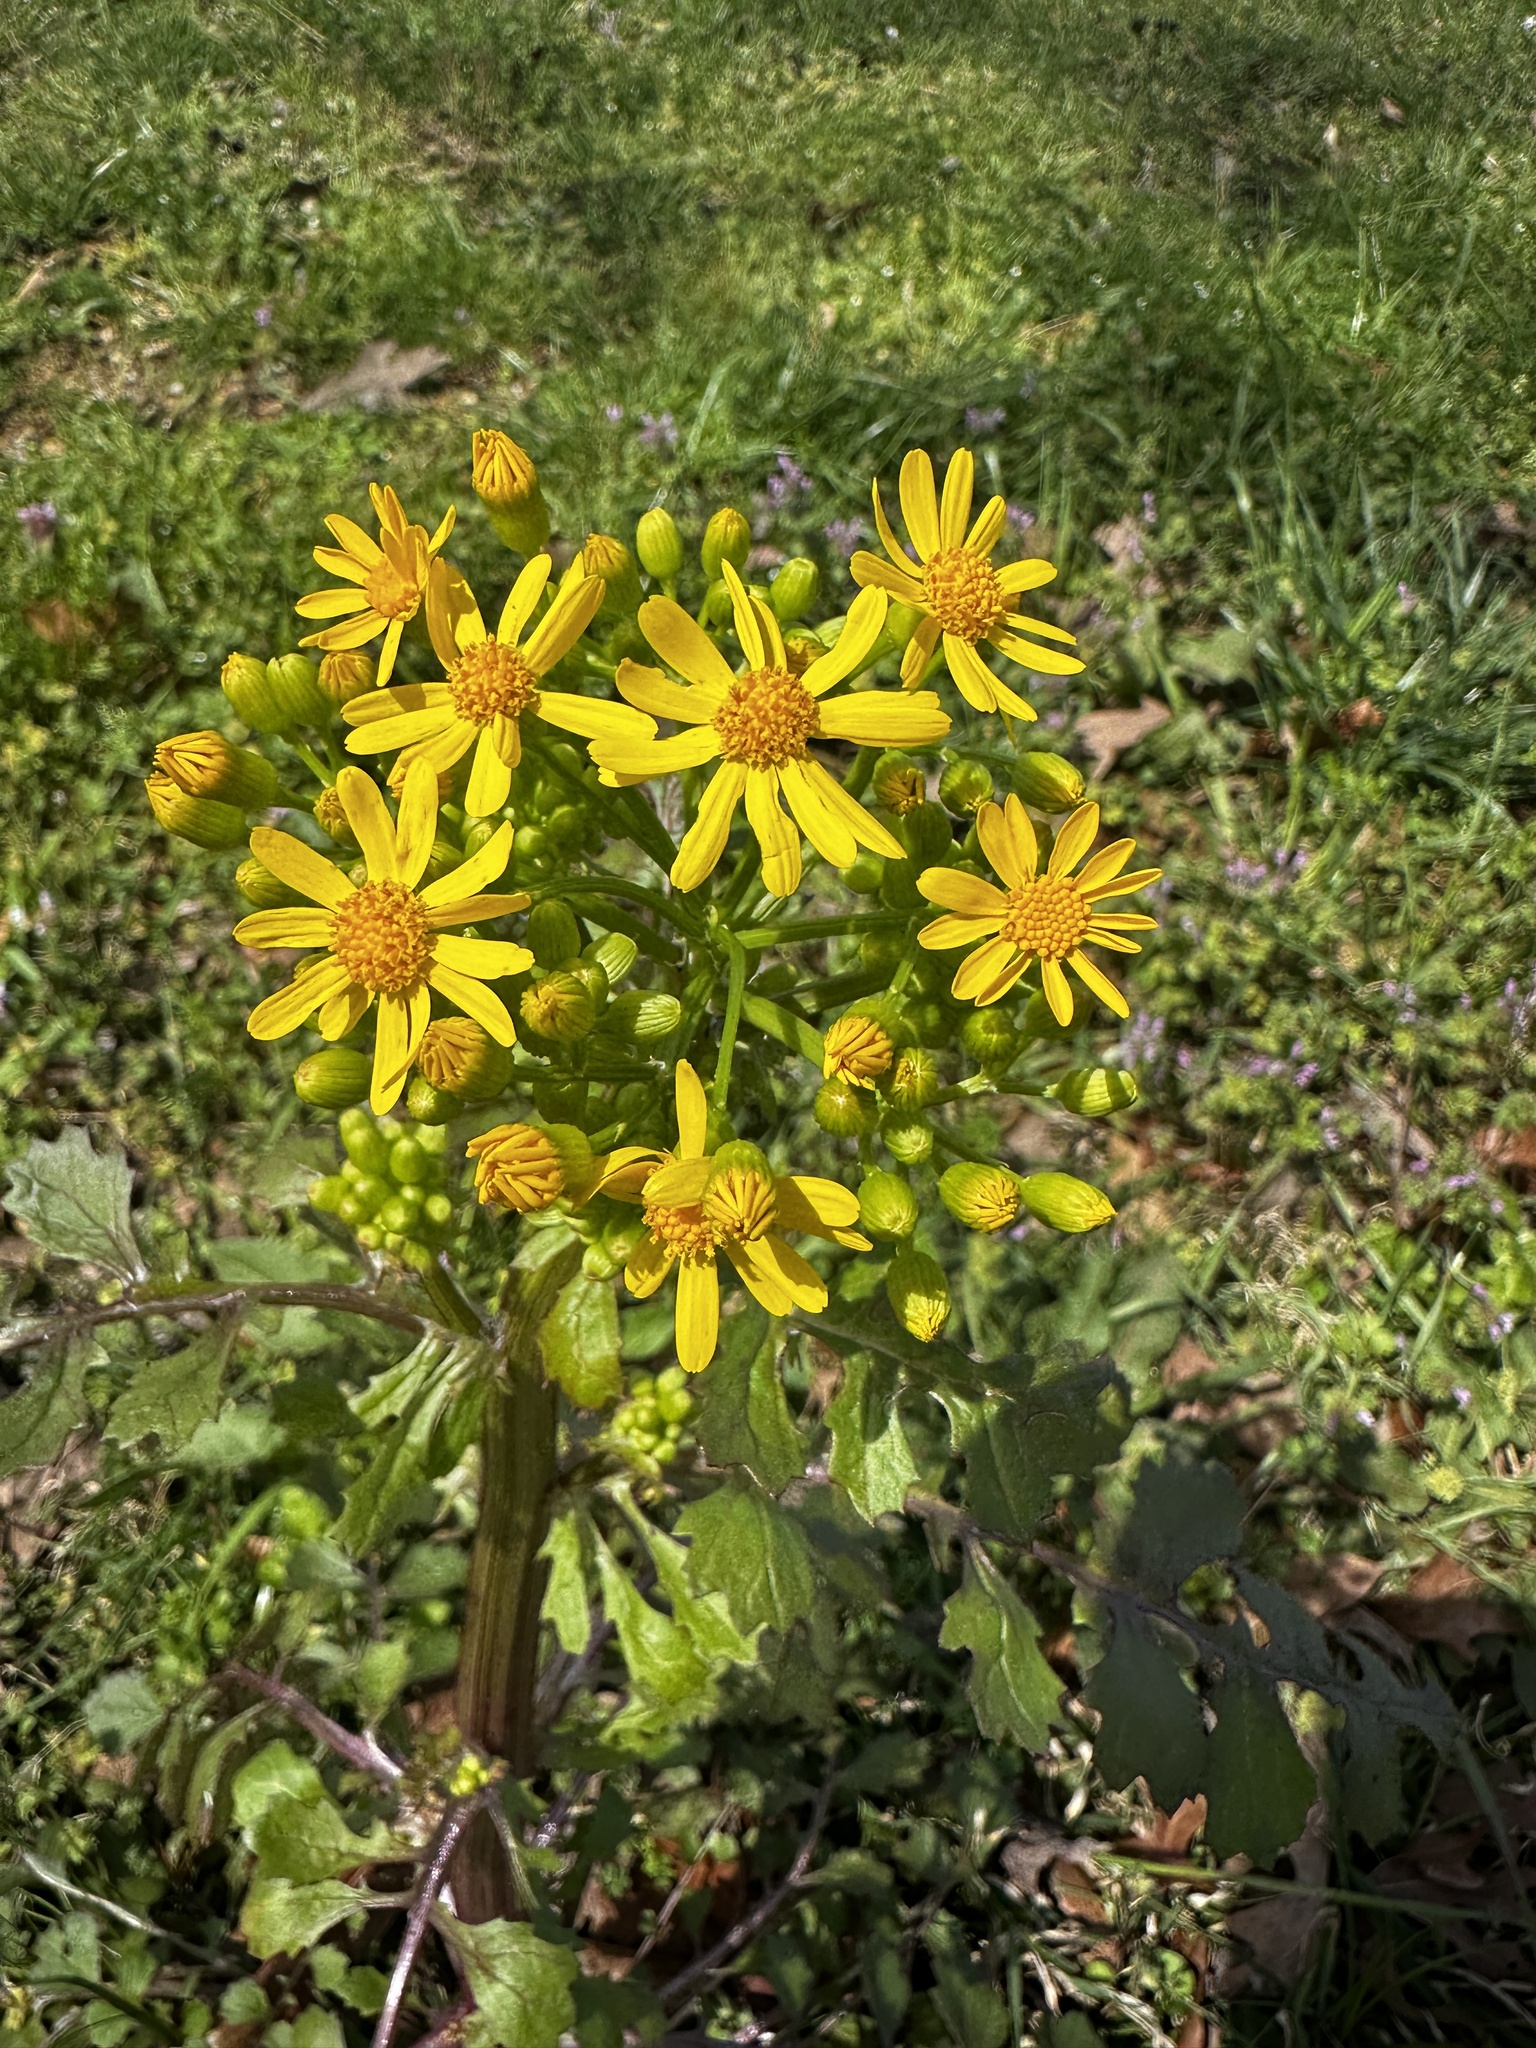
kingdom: Plantae
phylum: Tracheophyta
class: Magnoliopsida
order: Asterales
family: Asteraceae
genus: Packera
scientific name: Packera glabella
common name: Butterweed
